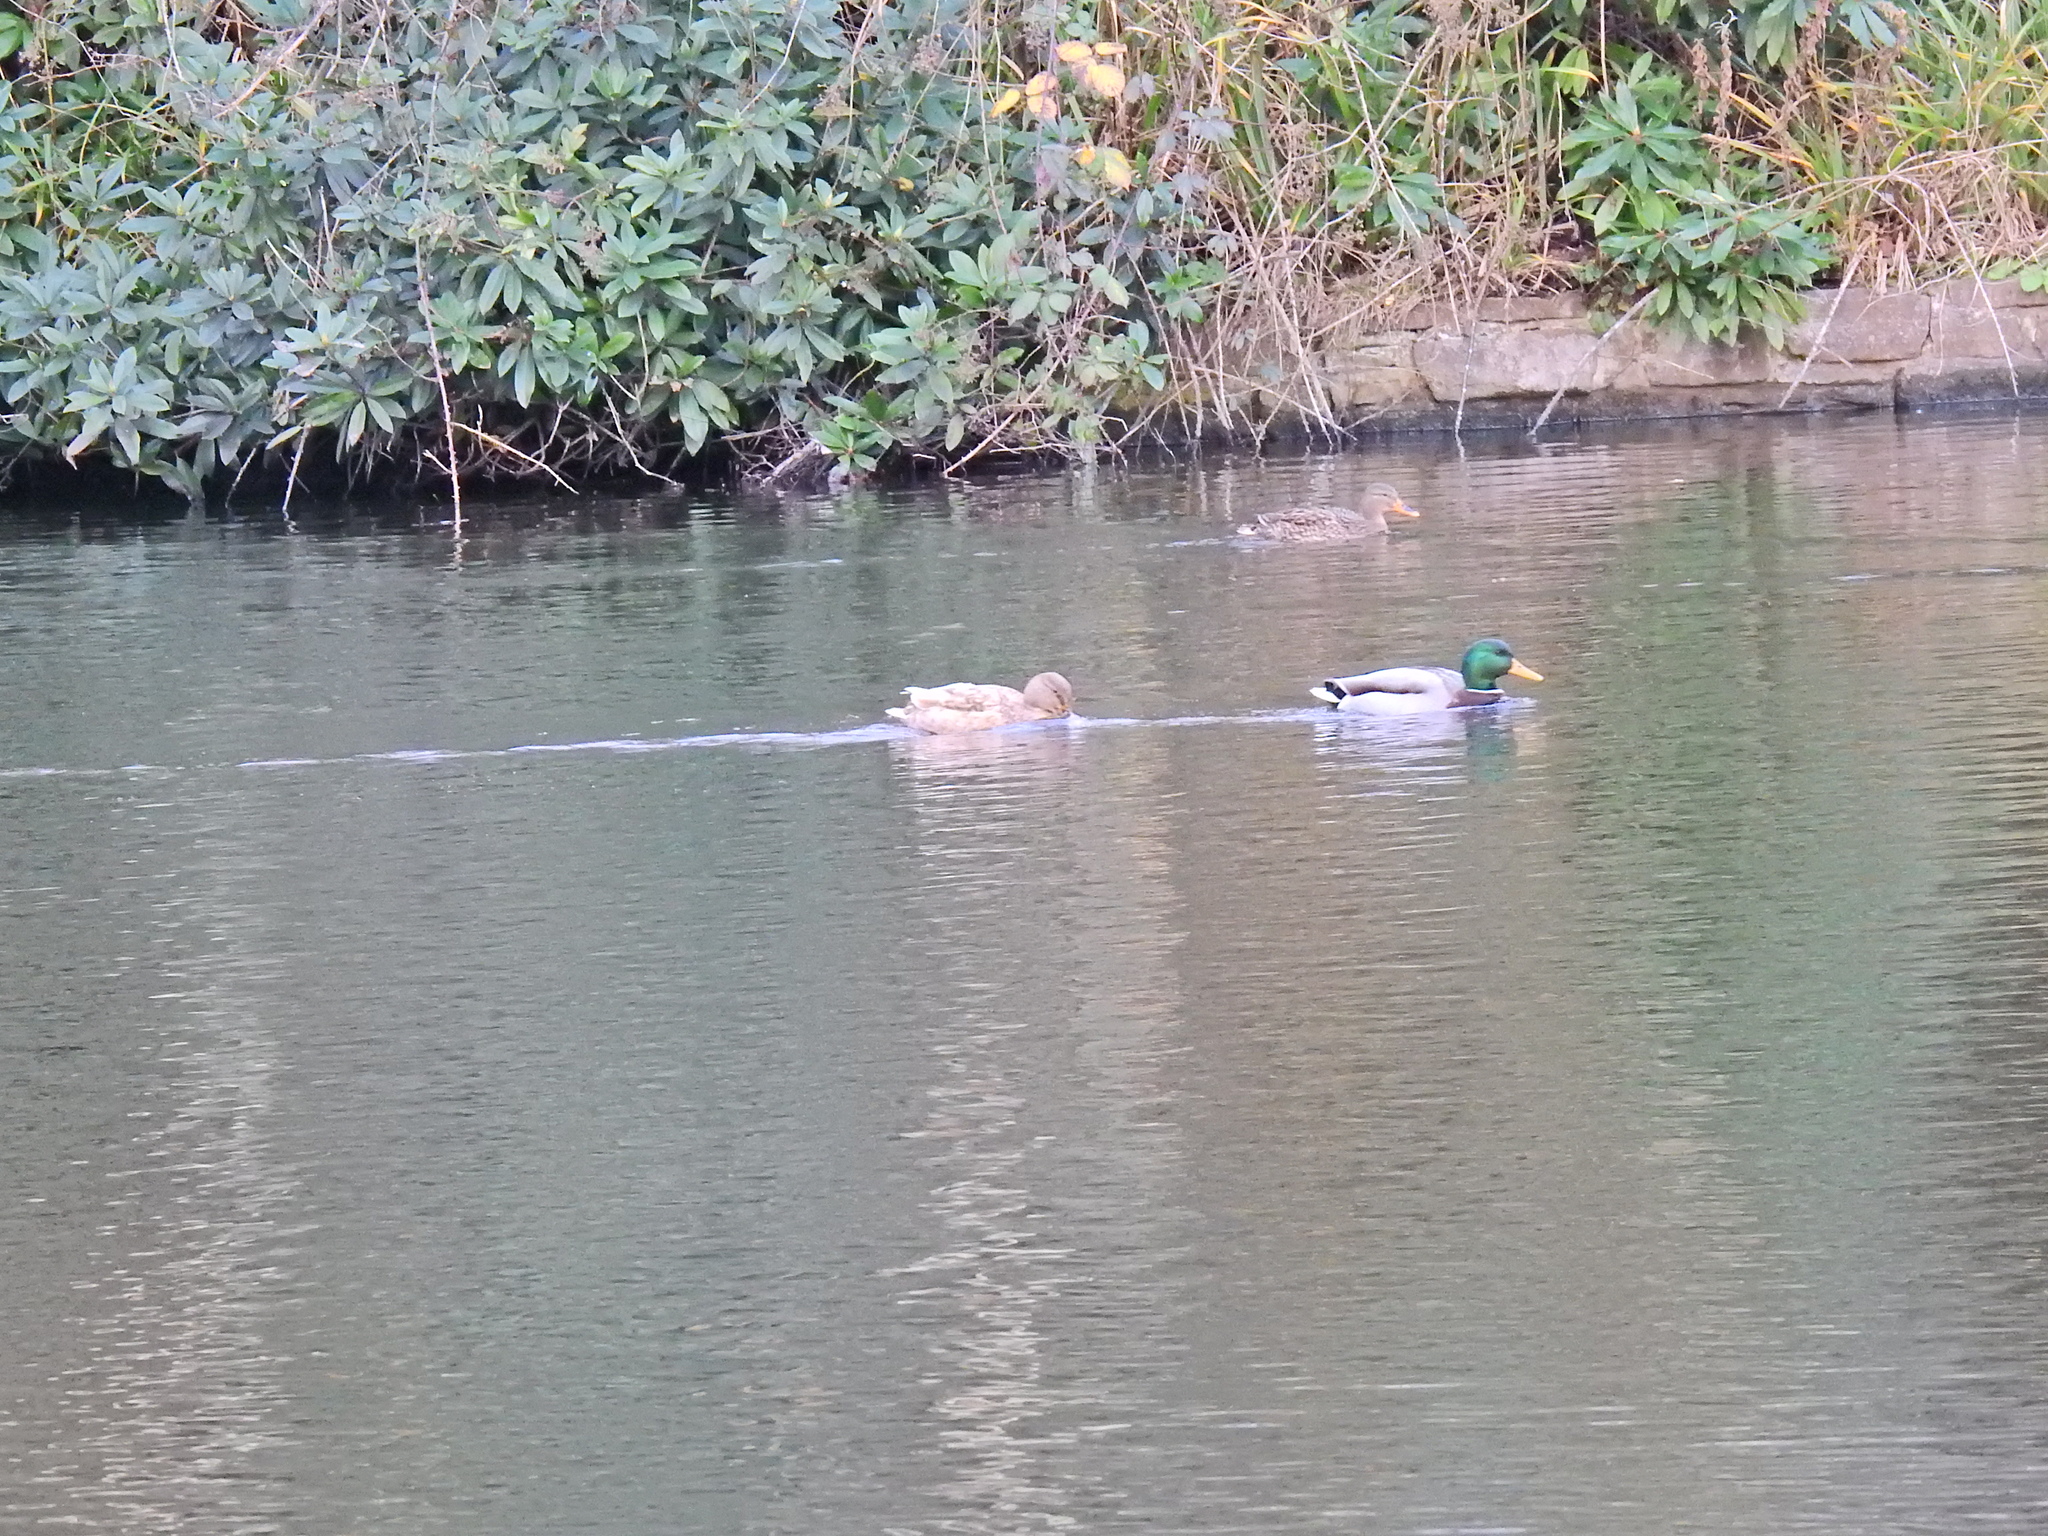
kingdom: Animalia
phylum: Chordata
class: Aves
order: Anseriformes
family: Anatidae
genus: Anas
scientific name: Anas platyrhynchos
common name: Mallard
